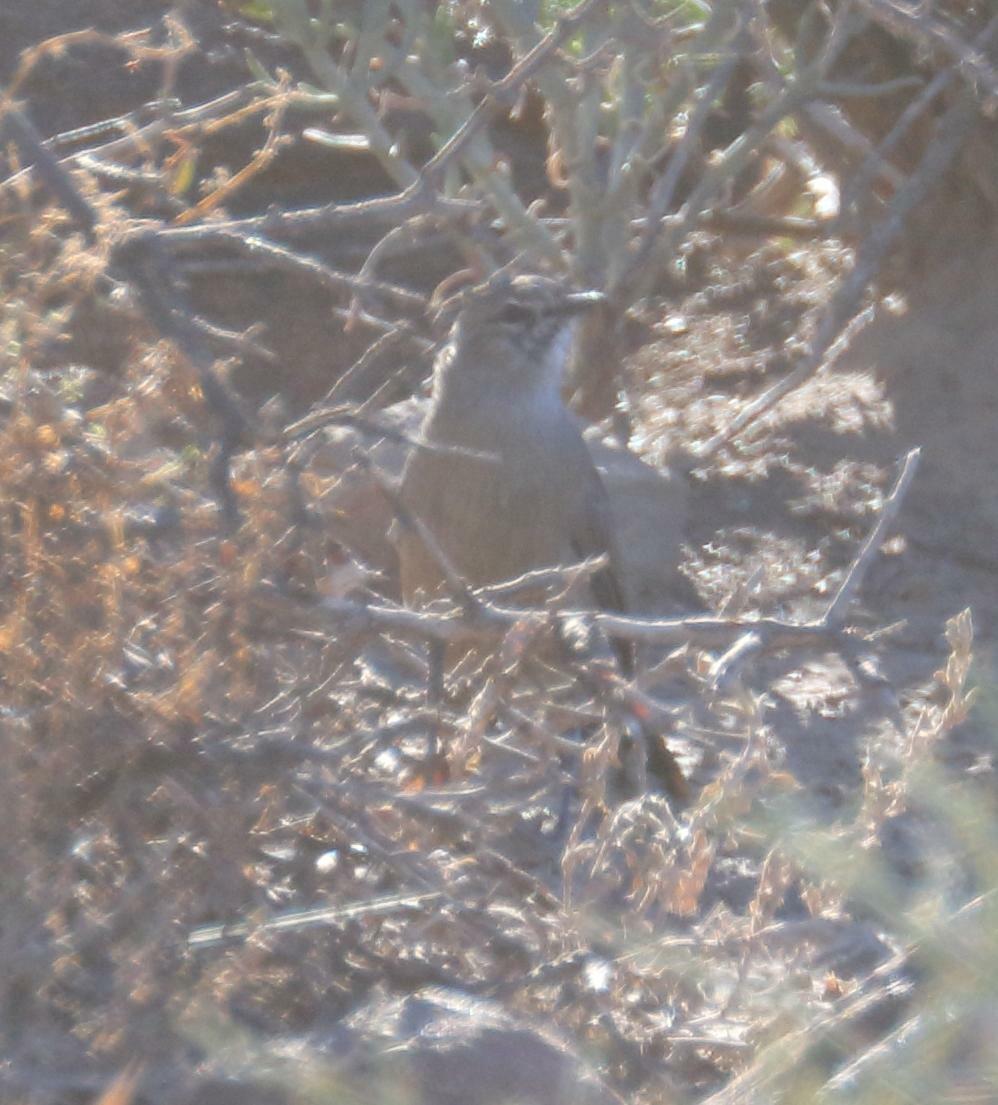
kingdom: Animalia
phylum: Chordata
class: Aves
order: Passeriformes
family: Muscicapidae
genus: Erythropygia
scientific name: Erythropygia coryphoeus
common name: Karoo scrub robin
